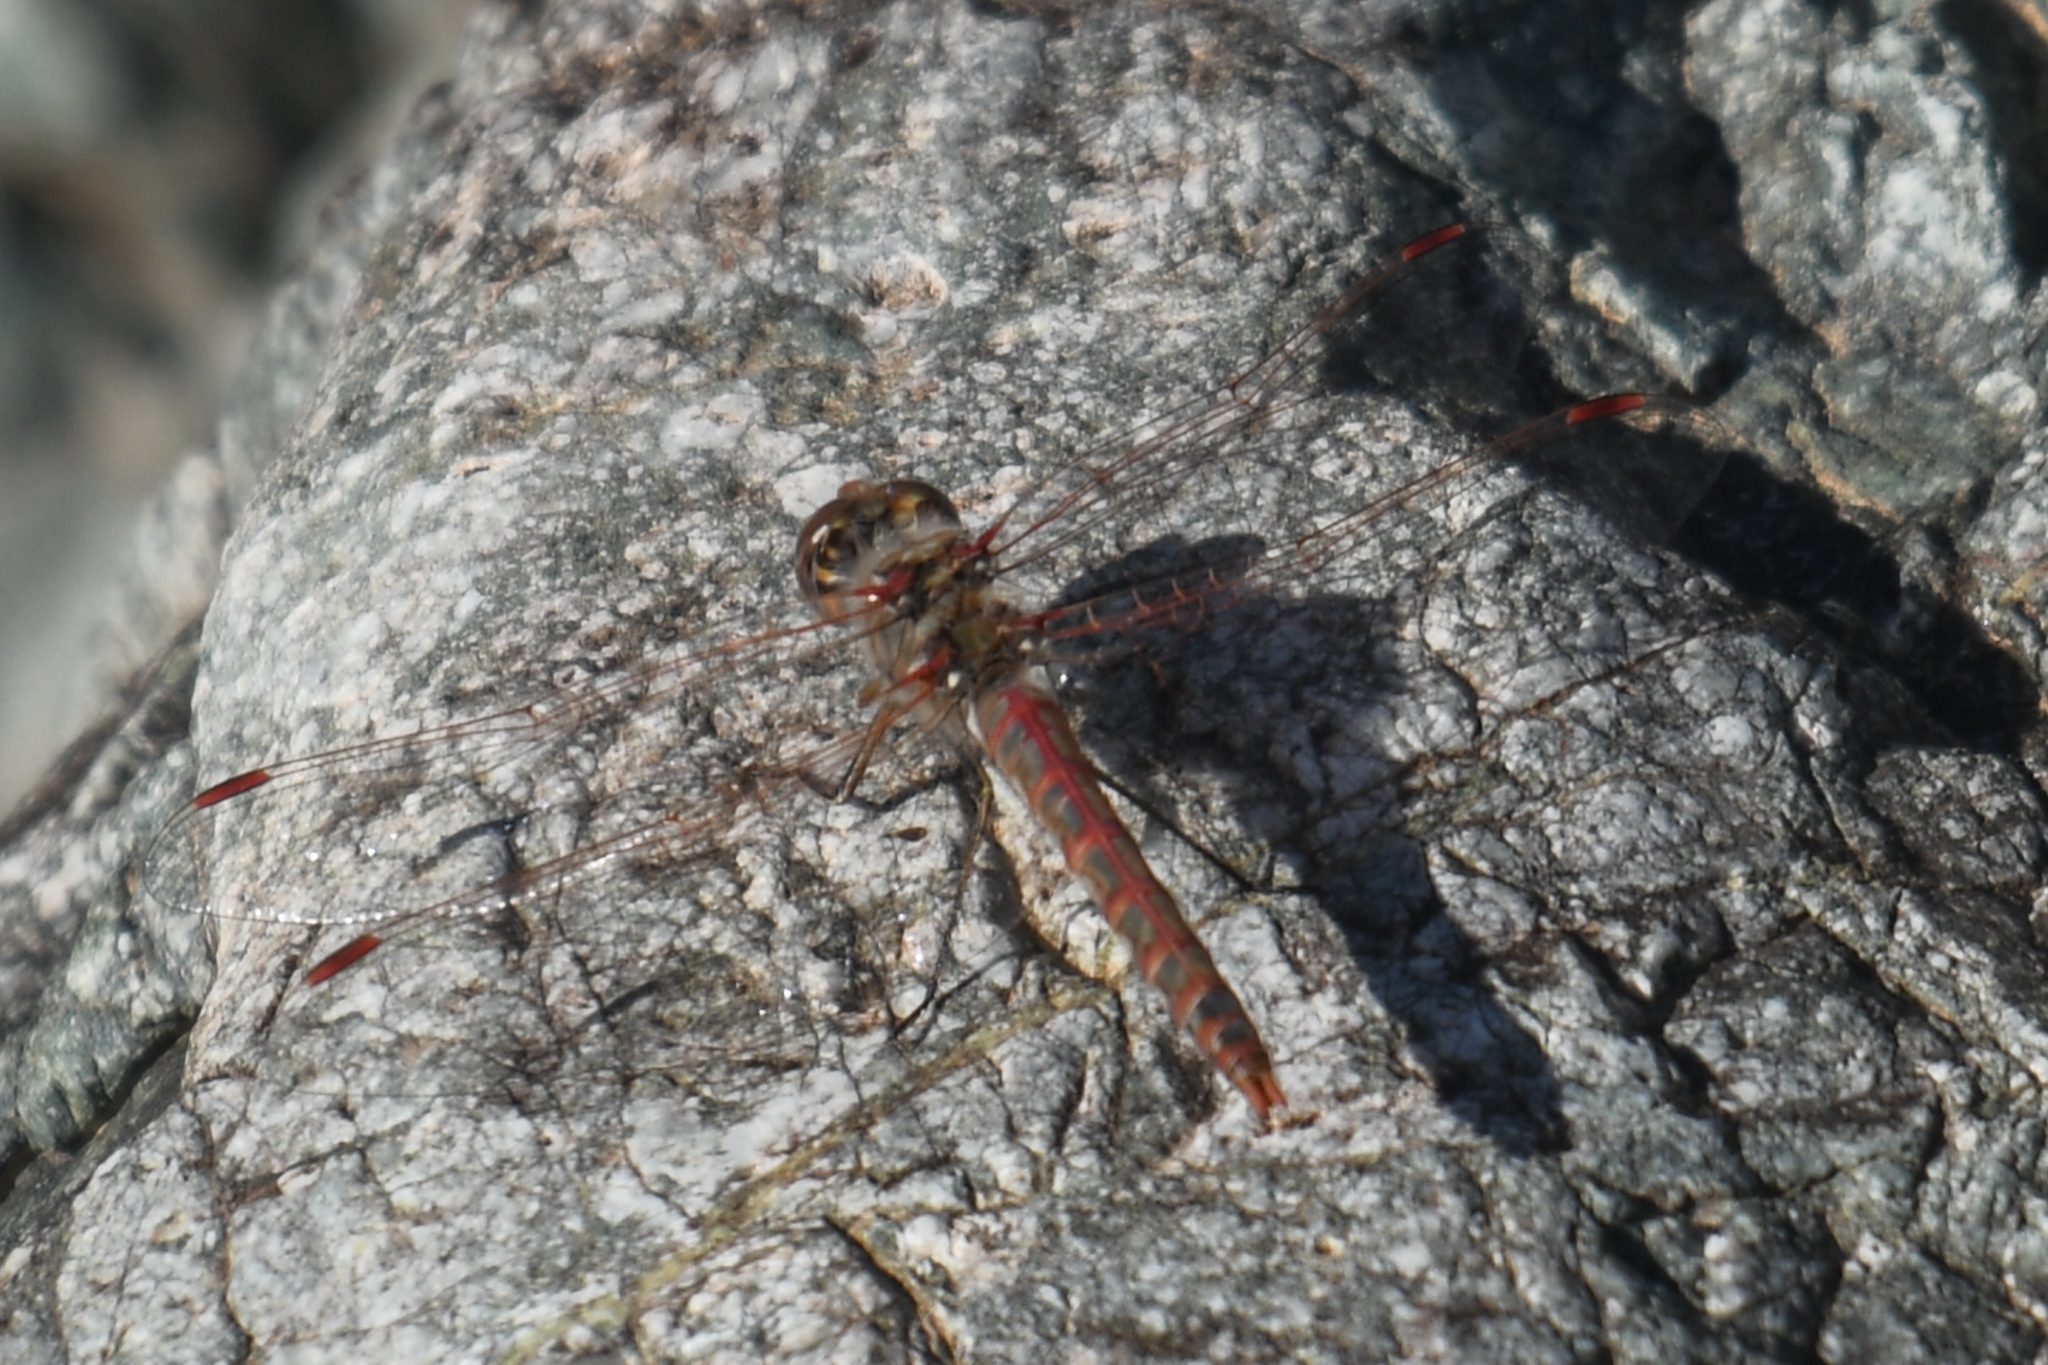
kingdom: Animalia
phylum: Arthropoda
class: Insecta
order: Odonata
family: Libellulidae
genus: Sympetrum
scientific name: Sympetrum corruptum
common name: Variegated meadowhawk
